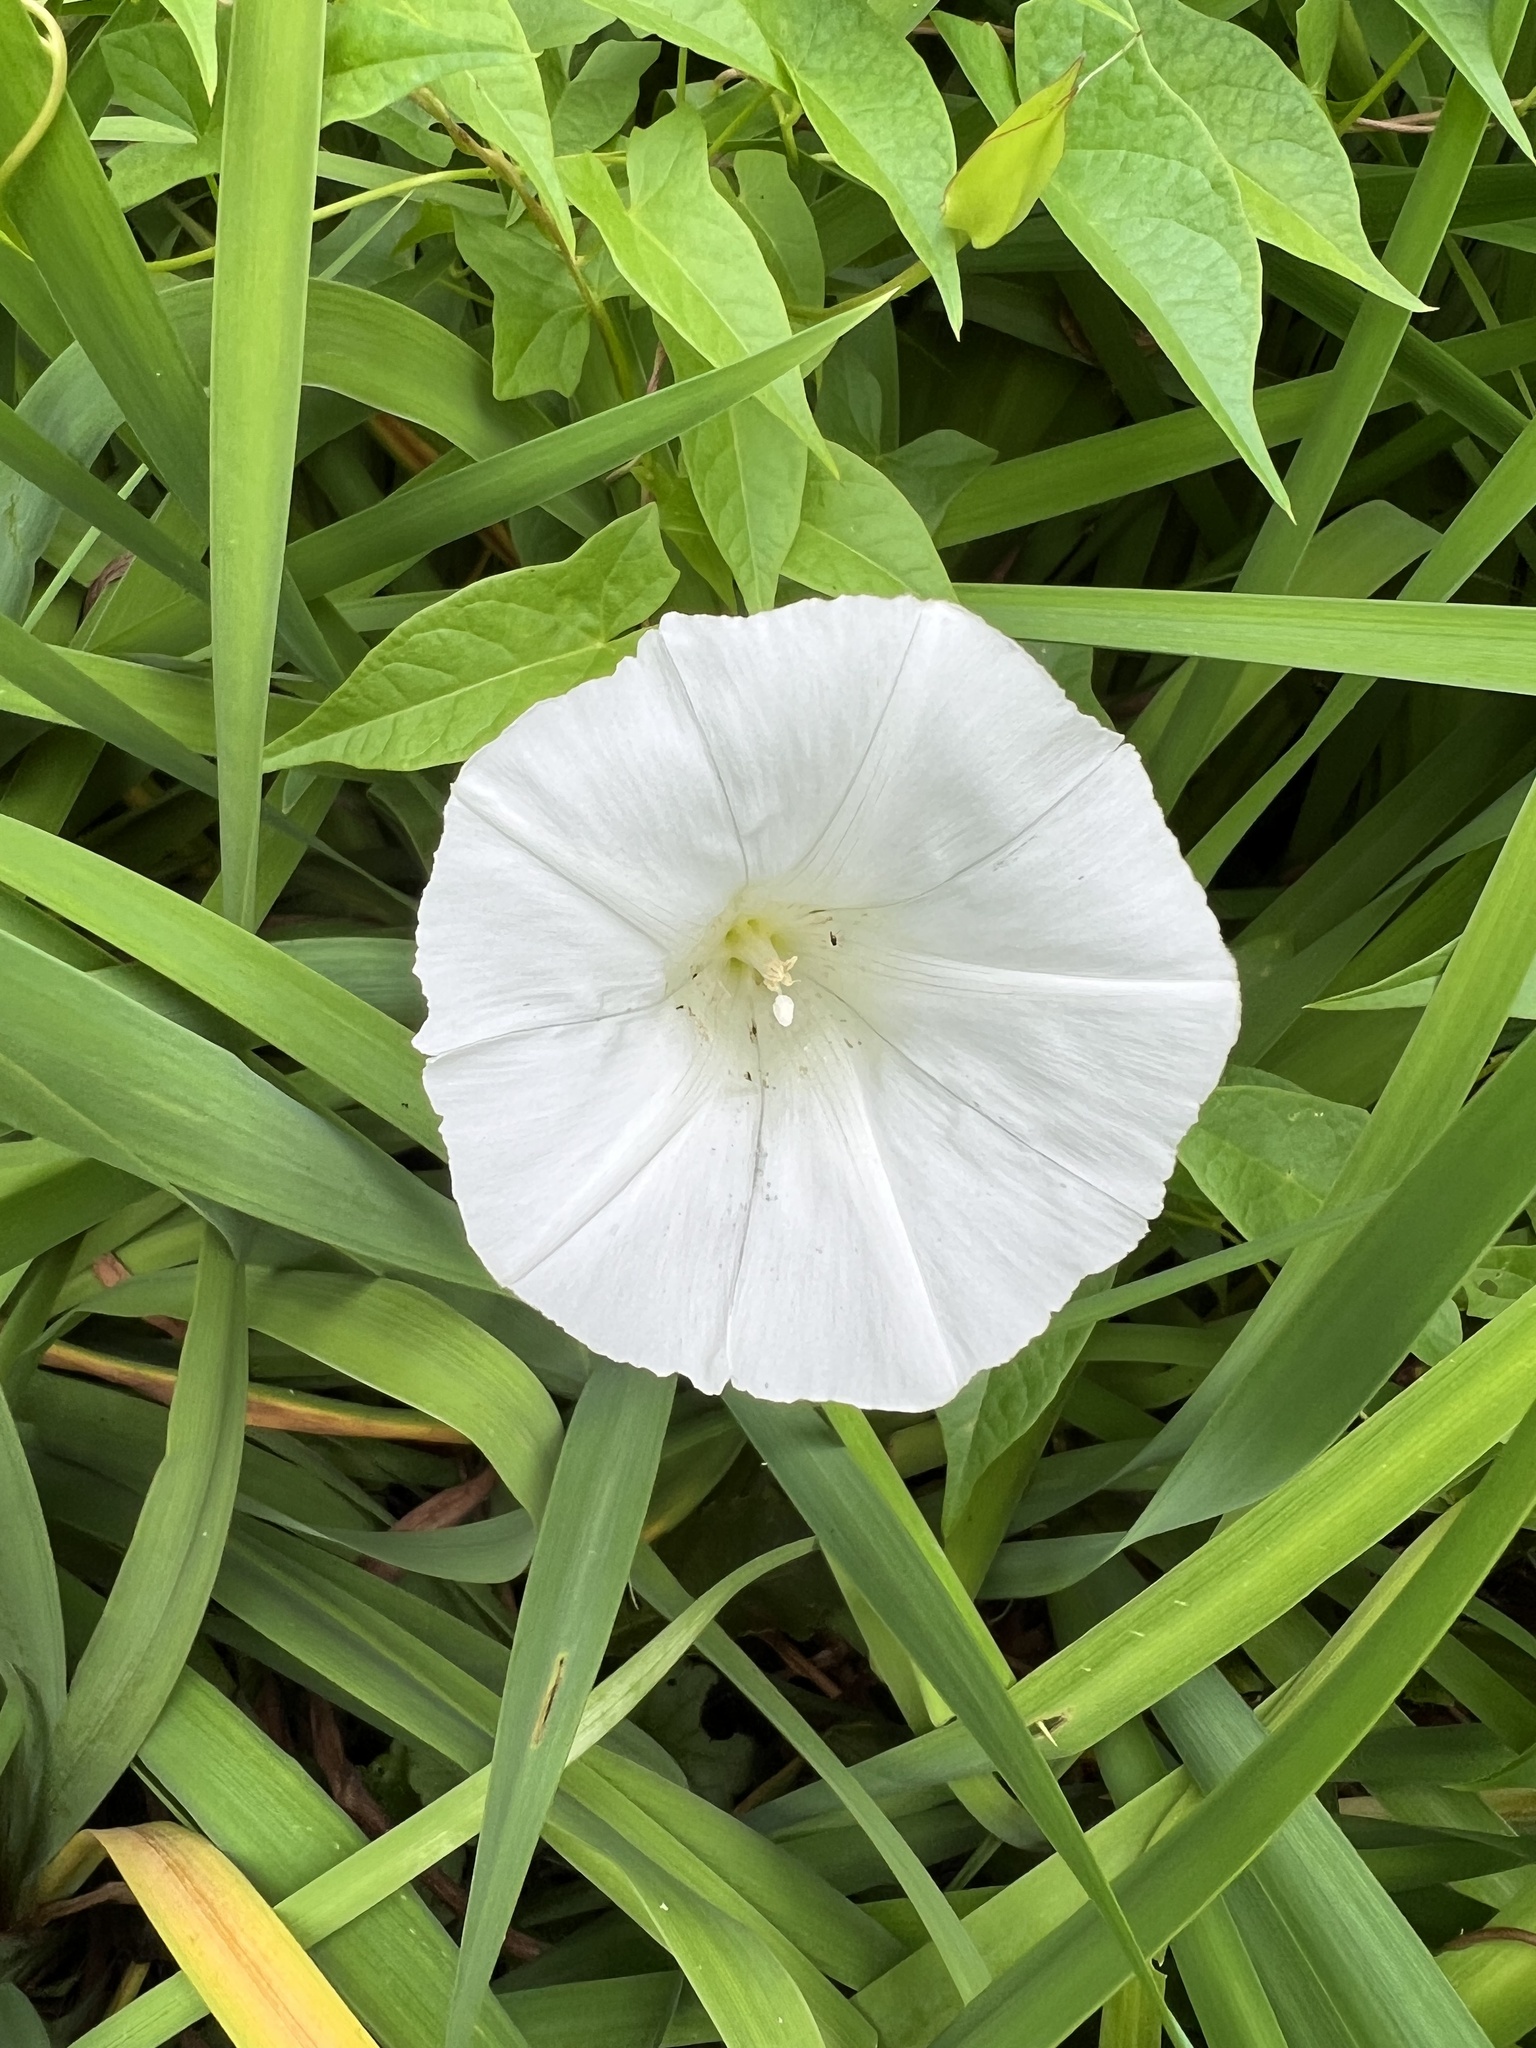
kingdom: Plantae
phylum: Tracheophyta
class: Magnoliopsida
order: Solanales
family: Convolvulaceae
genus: Calystegia
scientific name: Calystegia sepium
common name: Hedge bindweed
